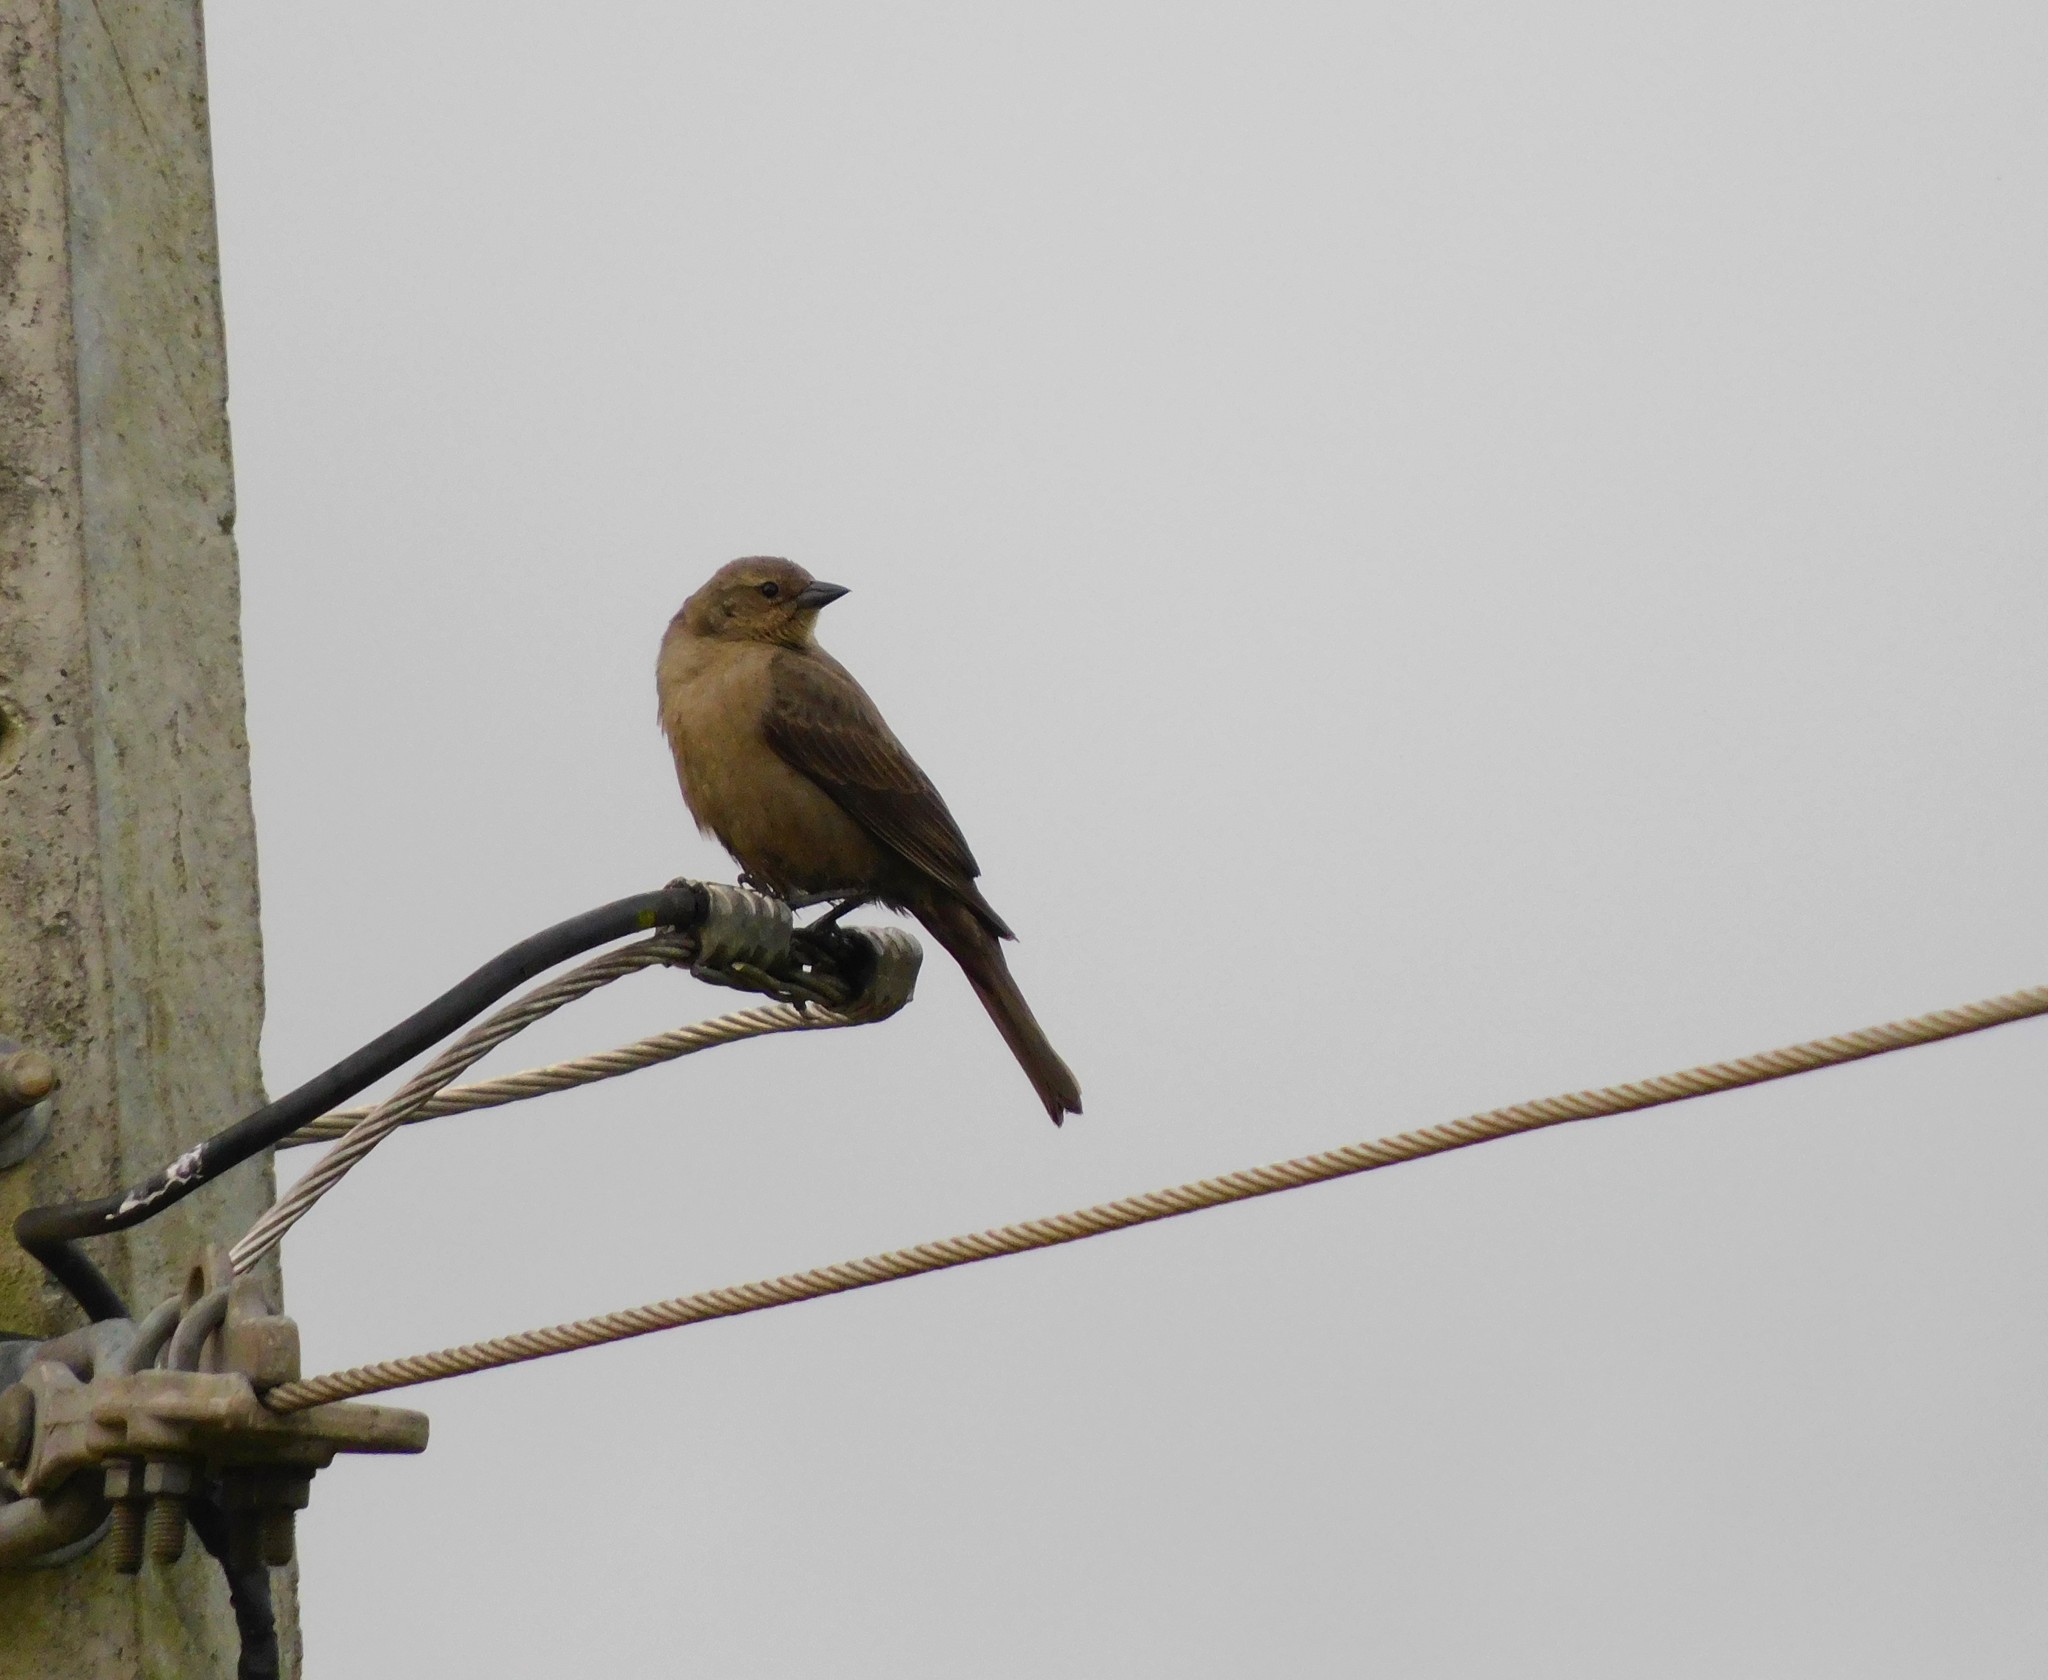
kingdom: Animalia
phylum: Chordata
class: Aves
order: Passeriformes
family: Icteridae
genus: Molothrus
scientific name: Molothrus bonariensis
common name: Shiny cowbird
